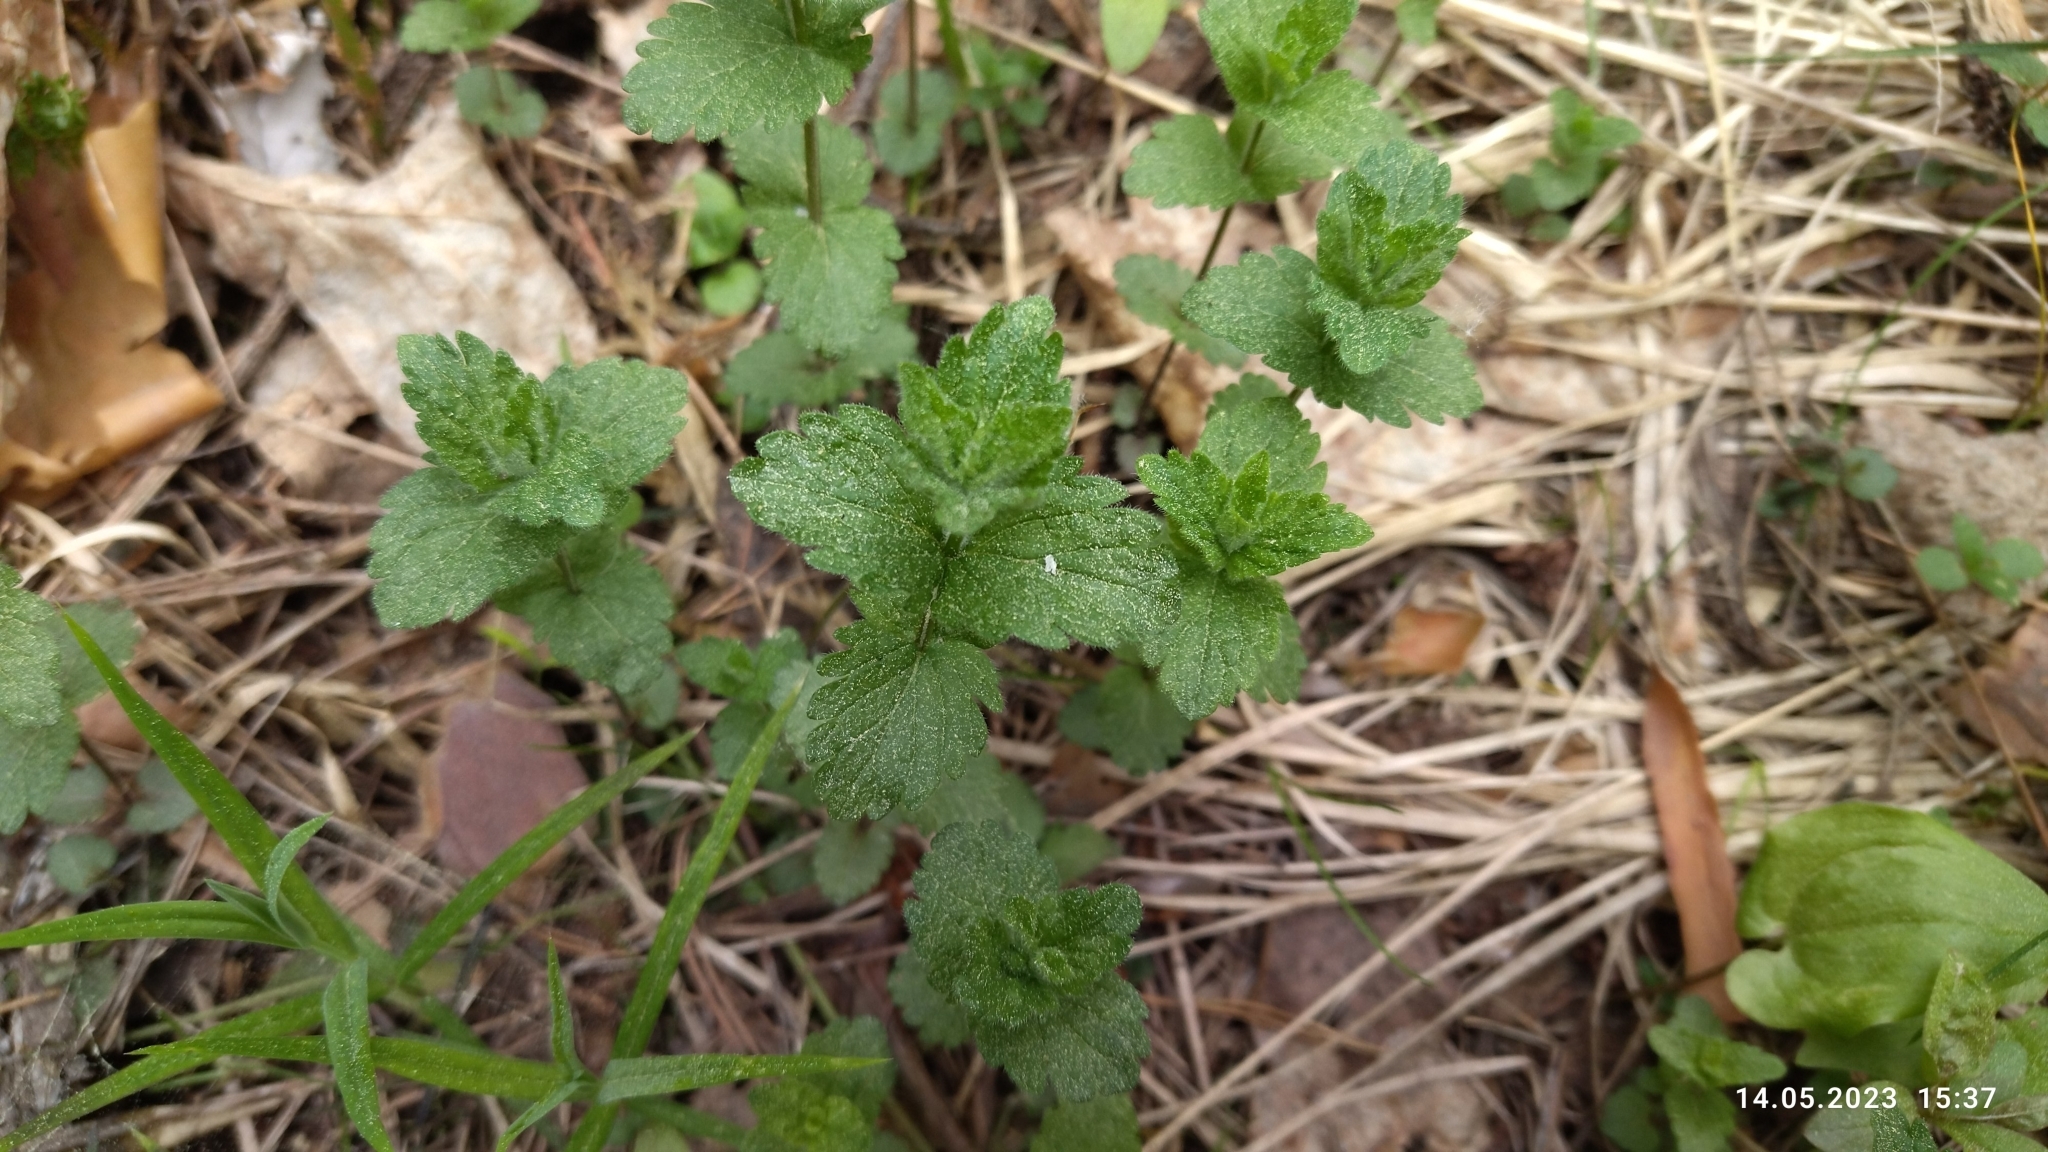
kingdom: Plantae
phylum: Tracheophyta
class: Magnoliopsida
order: Lamiales
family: Plantaginaceae
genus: Veronica
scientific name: Veronica chamaedrys
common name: Germander speedwell
